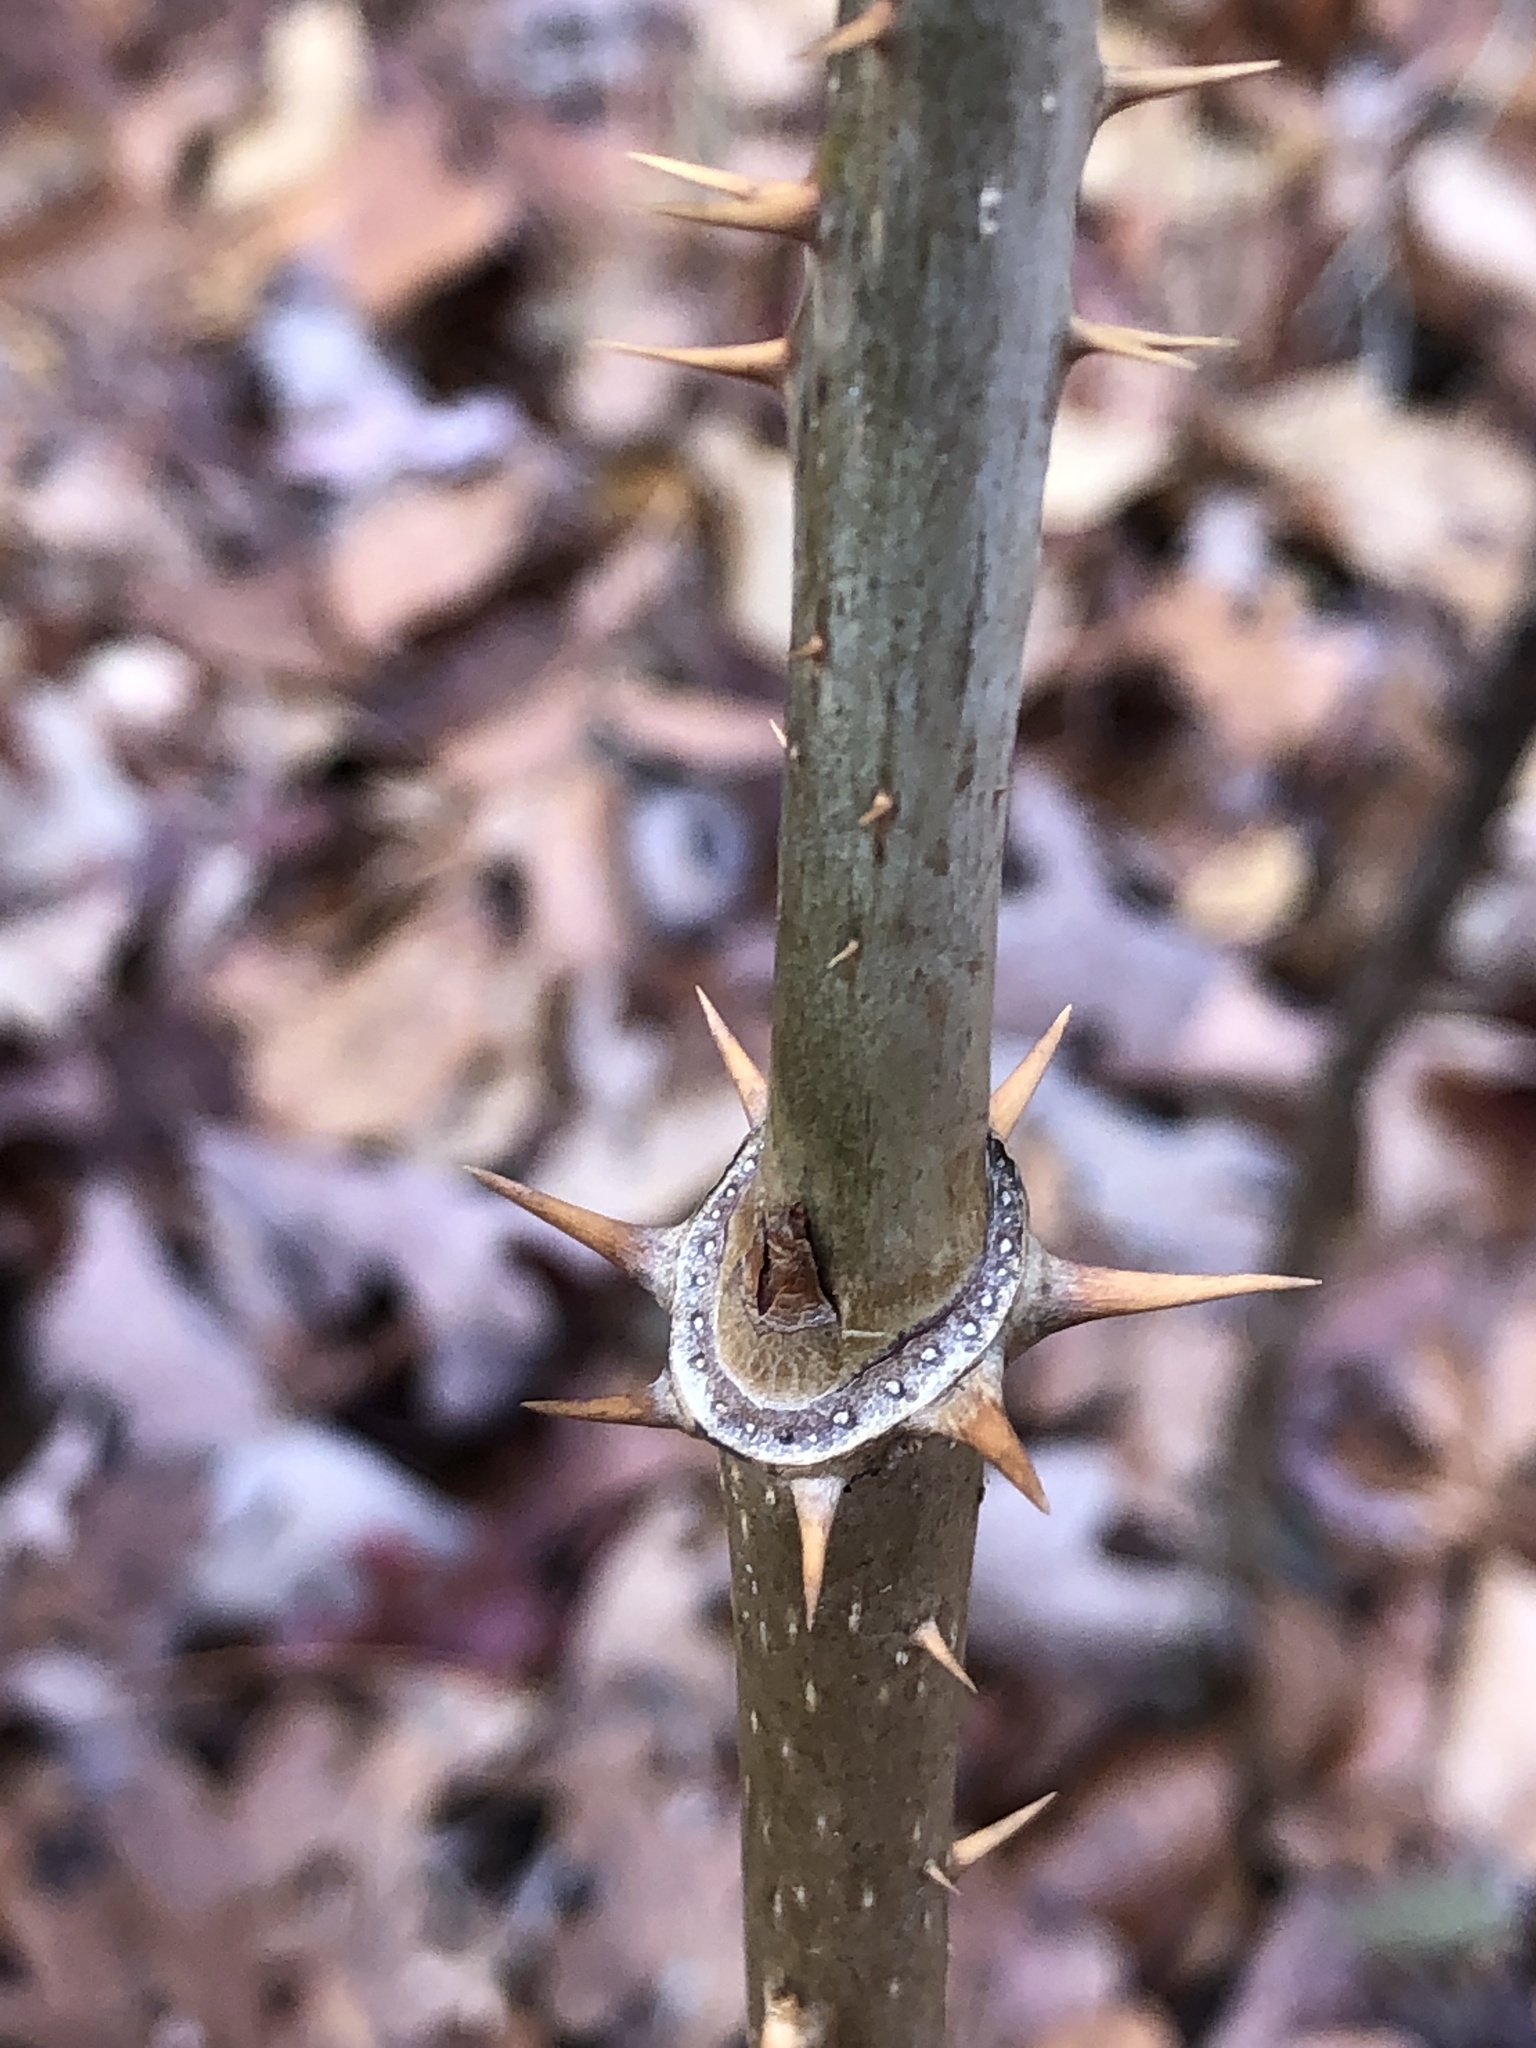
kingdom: Plantae
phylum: Tracheophyta
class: Magnoliopsida
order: Apiales
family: Araliaceae
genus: Aralia
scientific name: Aralia spinosa
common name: Hercules'-club
